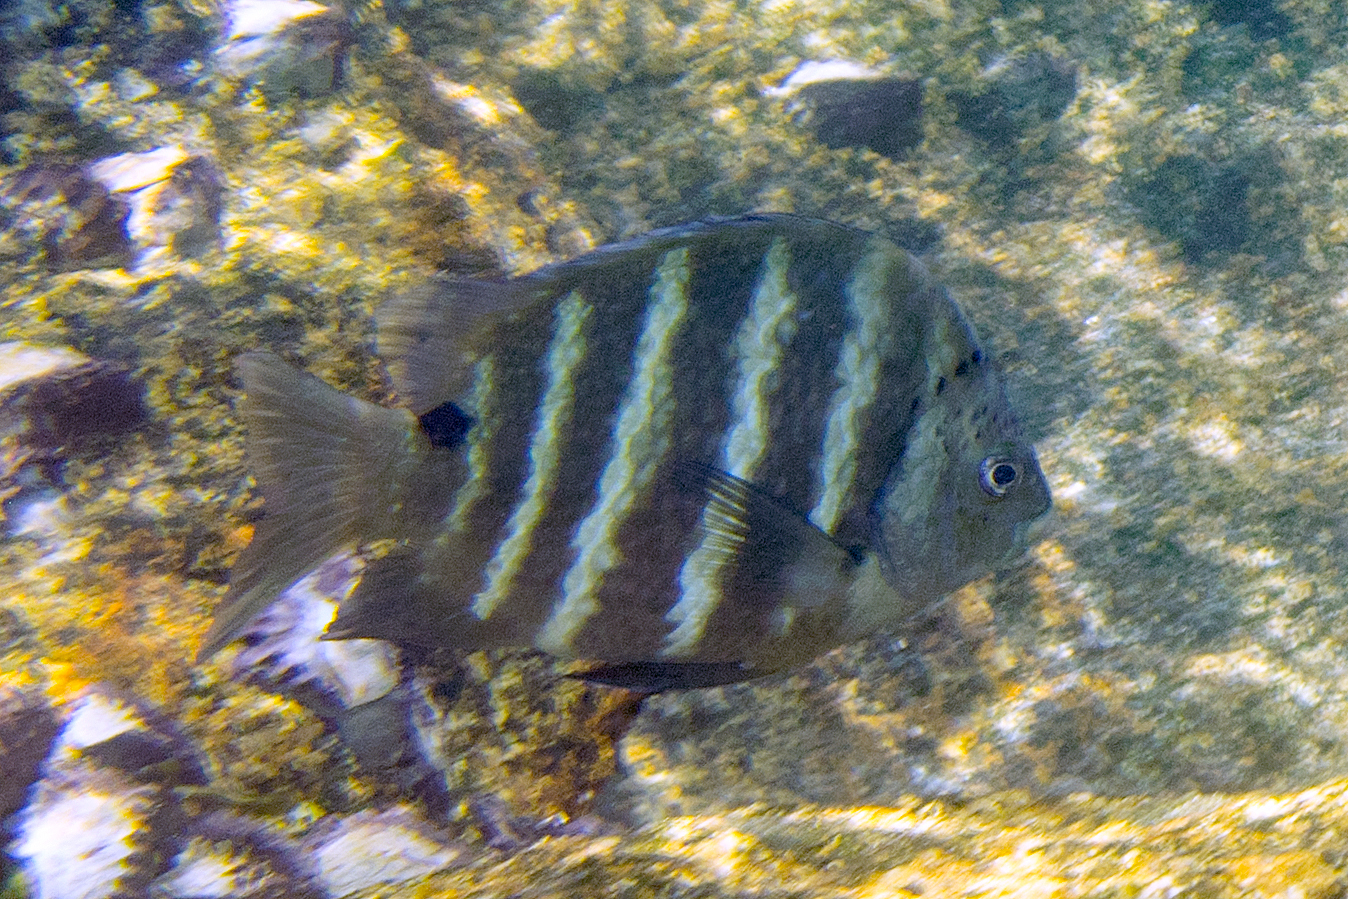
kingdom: Animalia
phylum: Chordata
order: Perciformes
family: Pomacentridae
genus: Abudefduf
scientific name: Abudefduf sordidus
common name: Blackspot sergeant
